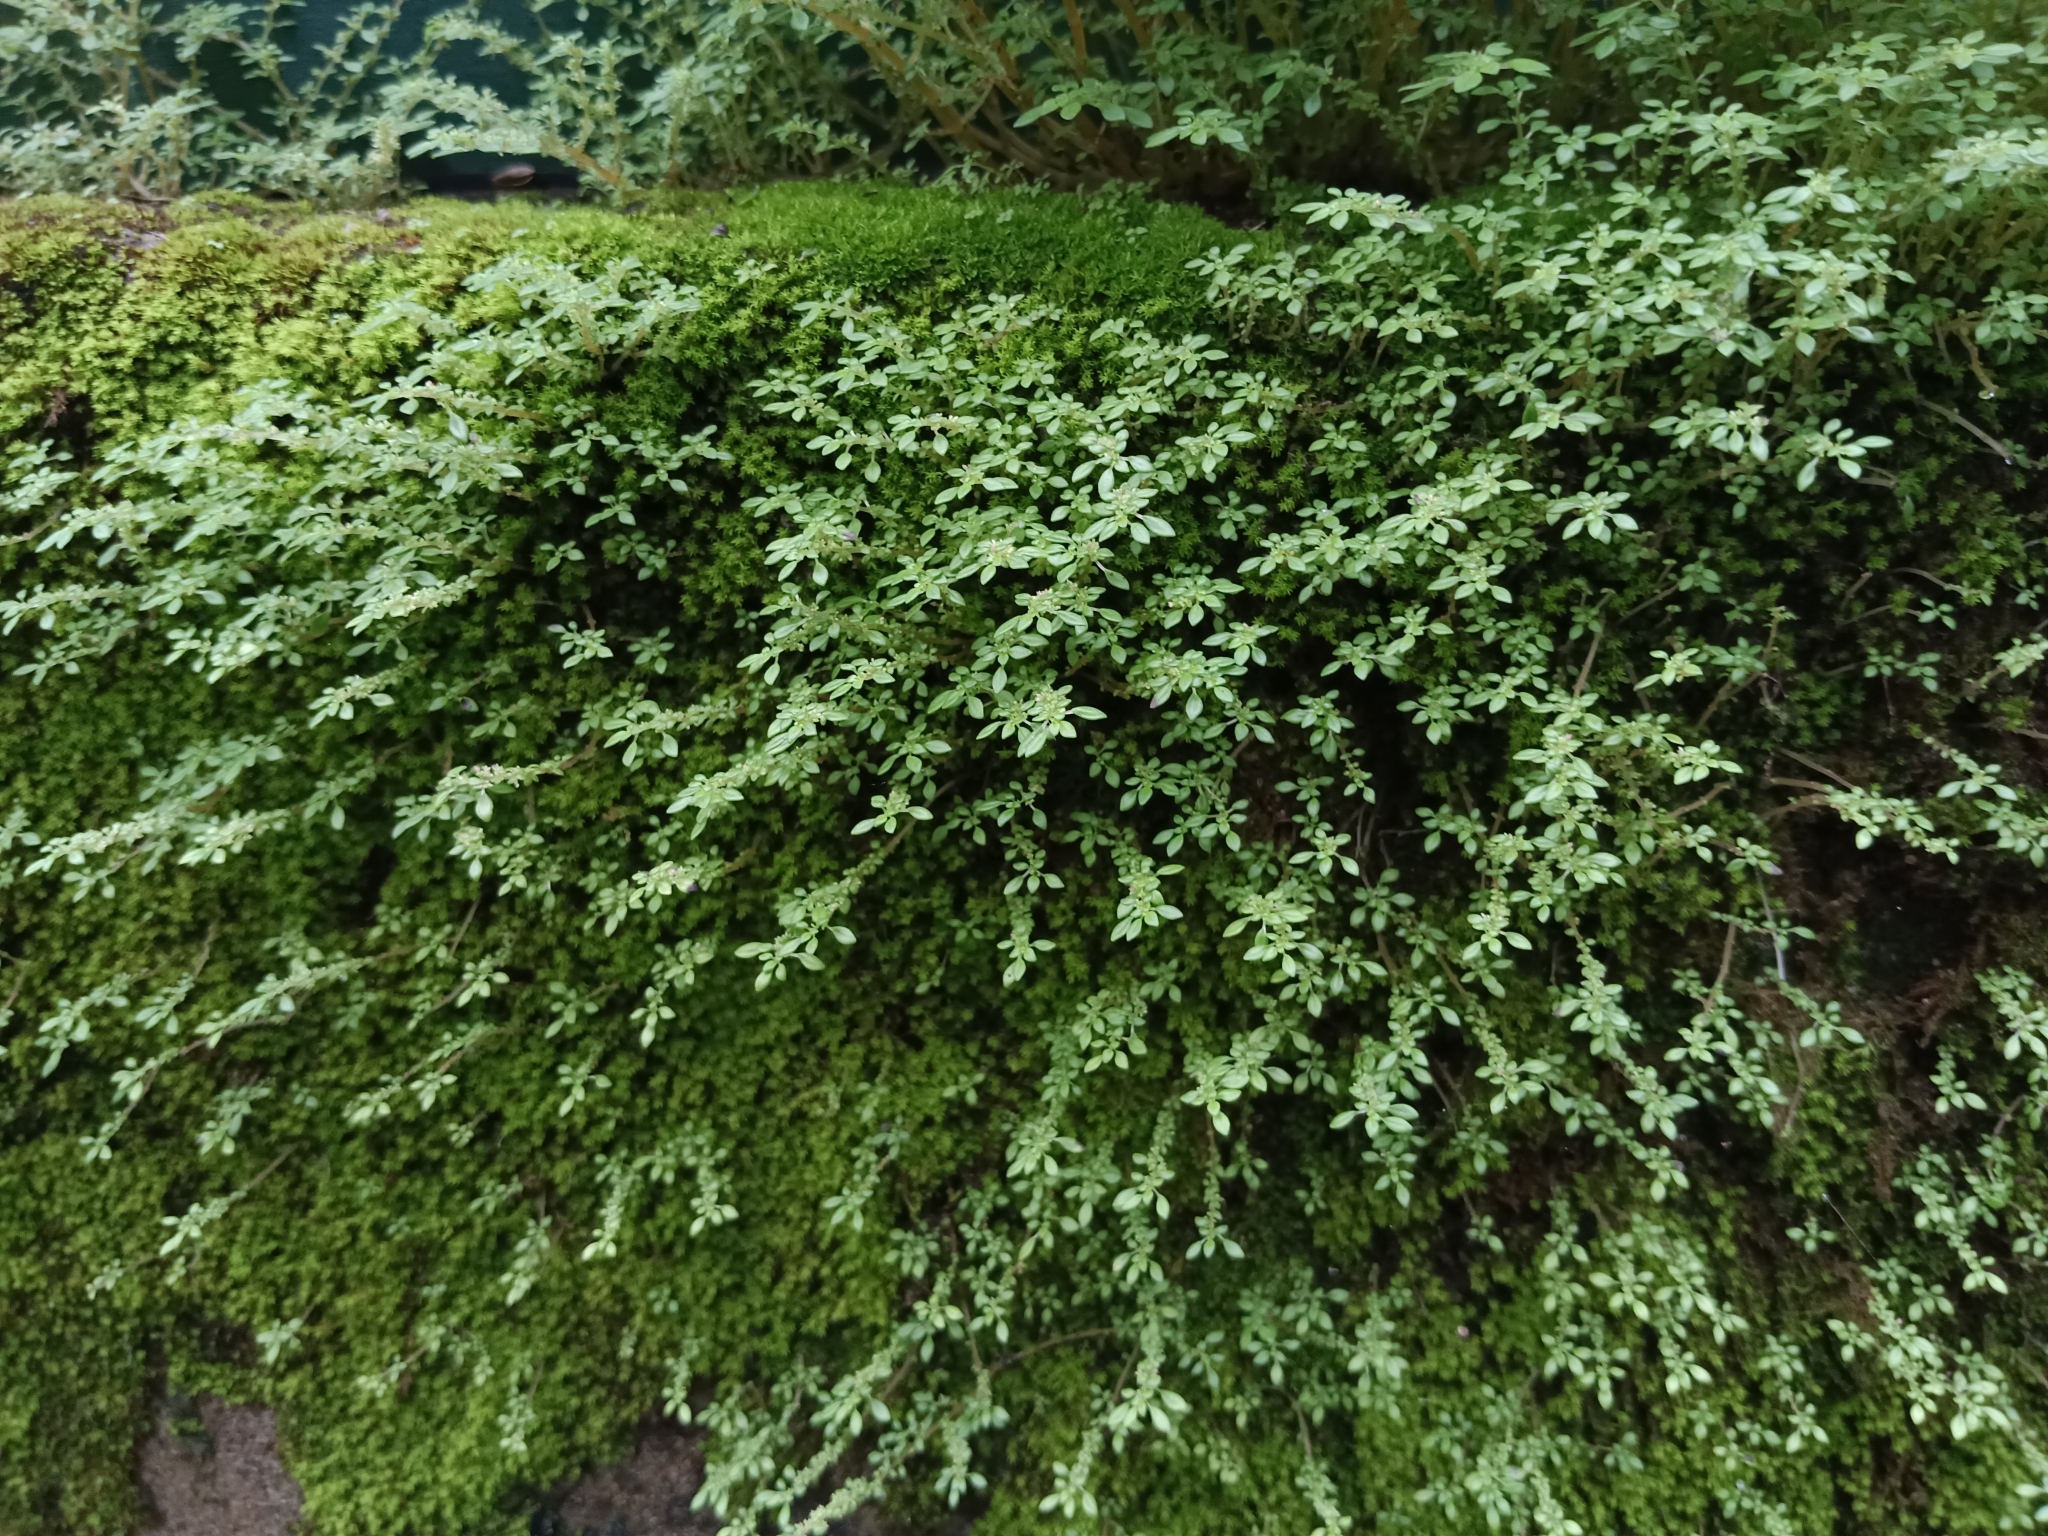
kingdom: Plantae
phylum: Tracheophyta
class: Magnoliopsida
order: Rosales
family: Urticaceae
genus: Pilea
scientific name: Pilea microphylla
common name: Artillery-plant
